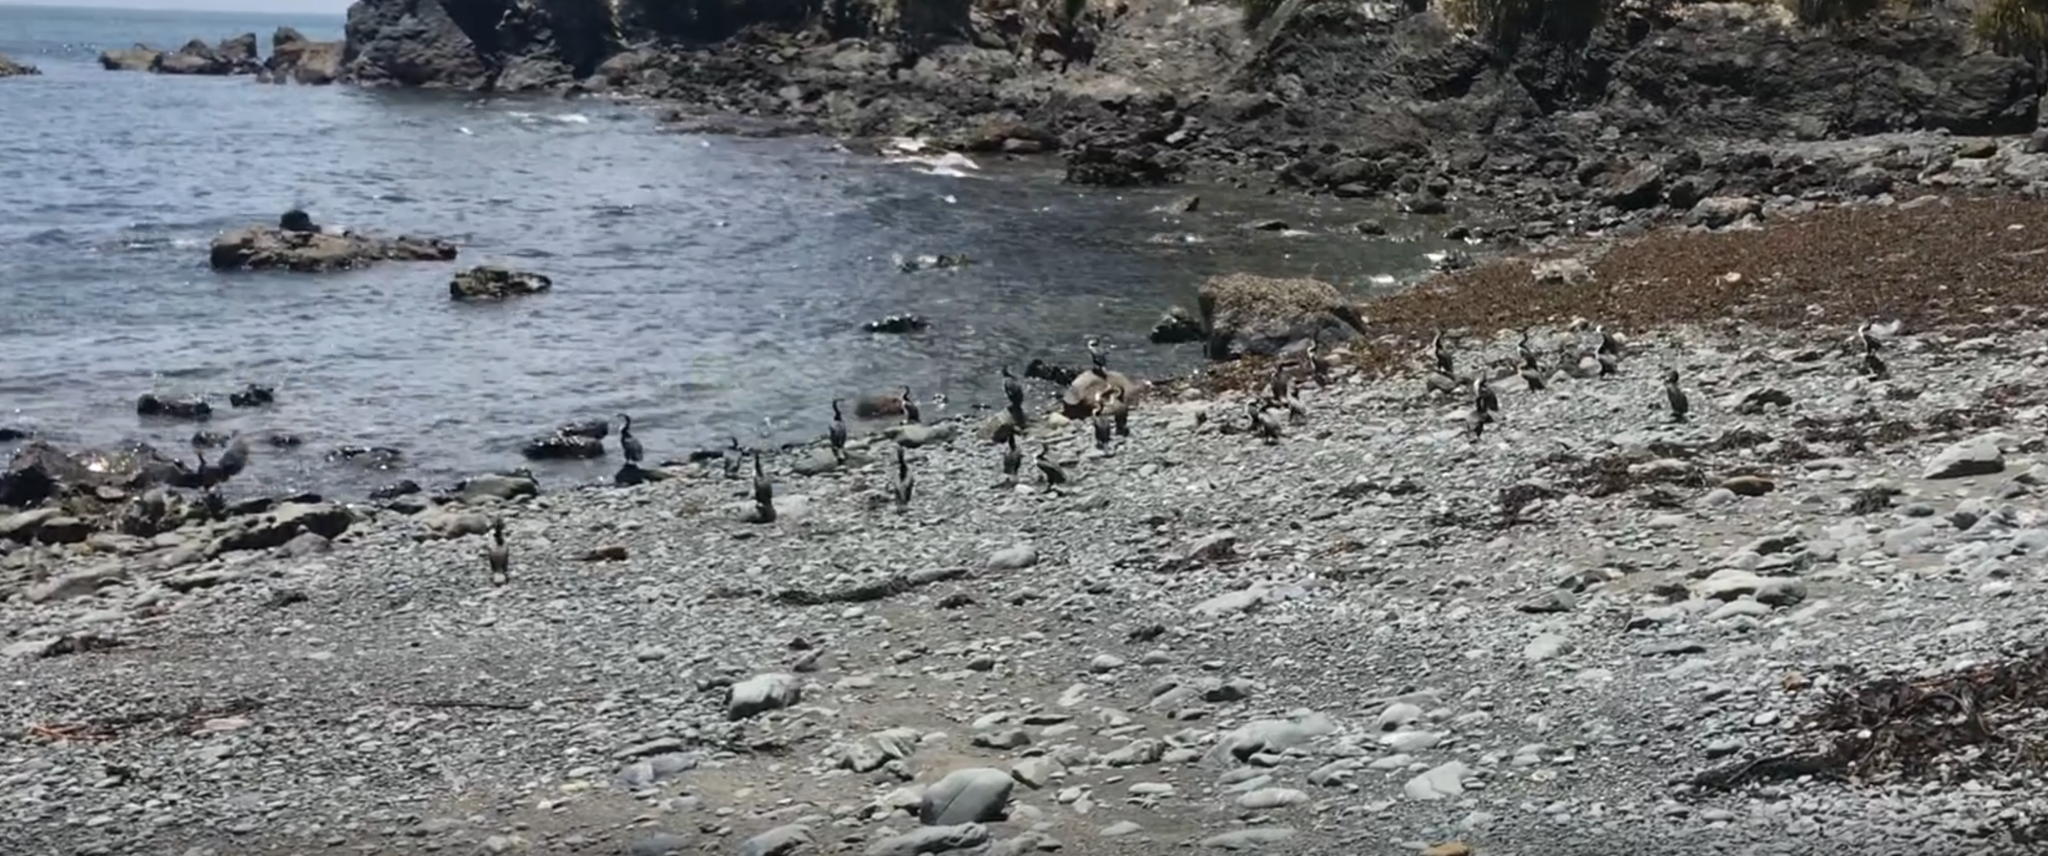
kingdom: Animalia
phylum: Chordata
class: Aves
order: Suliformes
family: Phalacrocoracidae
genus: Phalacrocorax
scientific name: Phalacrocorax varius
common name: Pied cormorant
